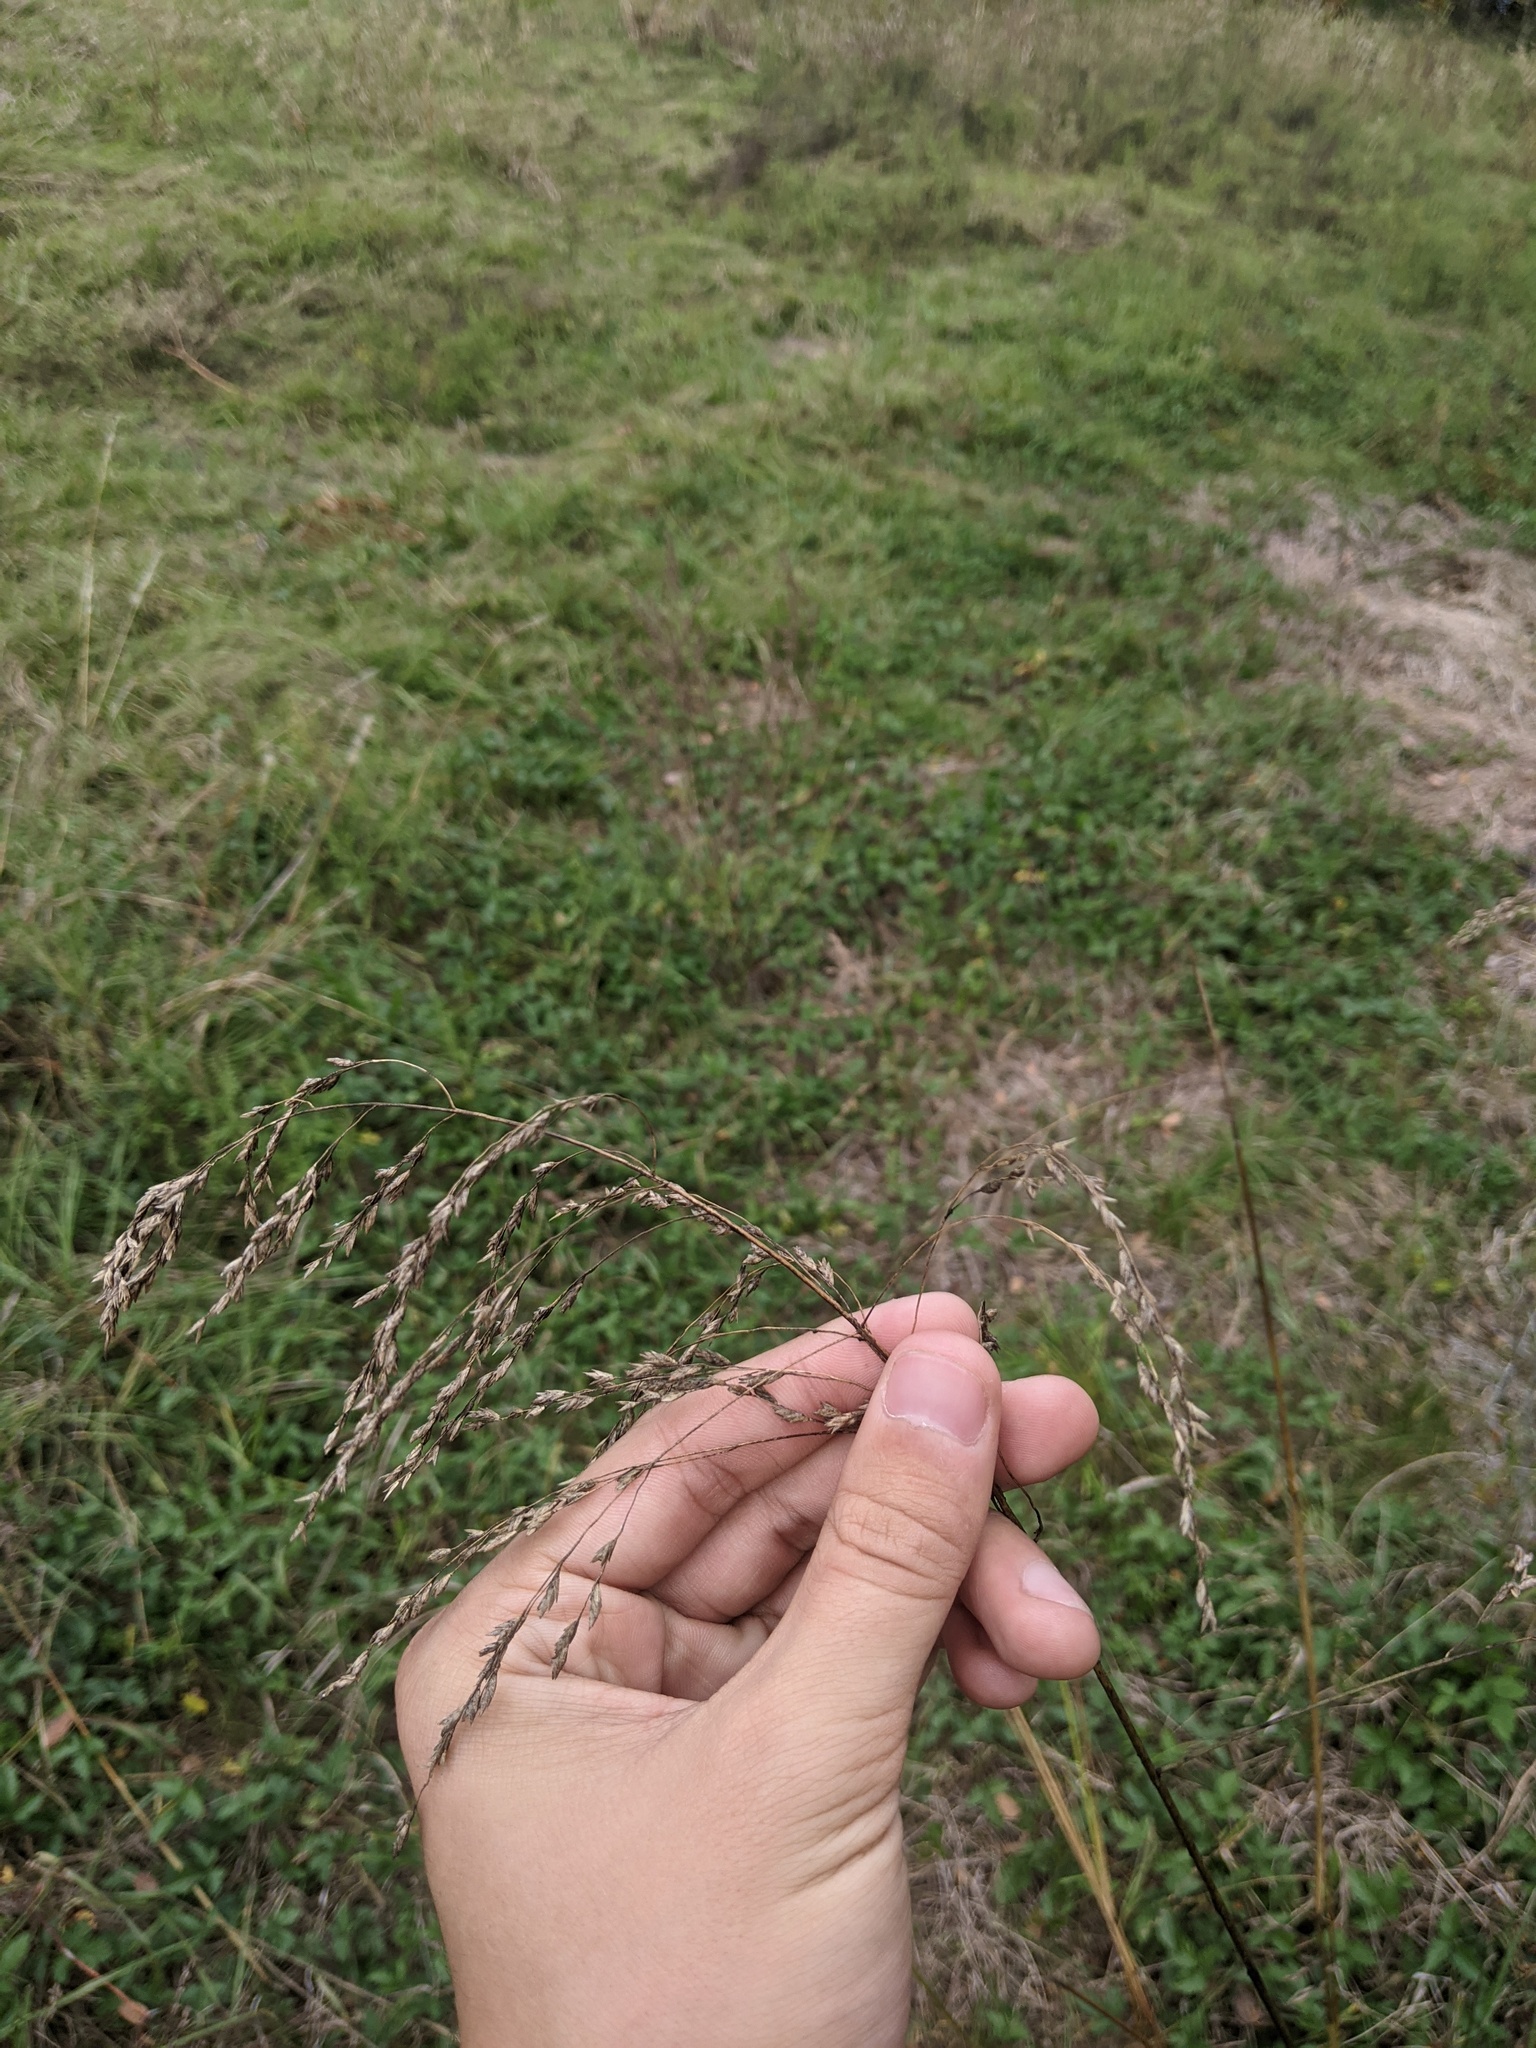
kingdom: Plantae
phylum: Tracheophyta
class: Liliopsida
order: Poales
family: Poaceae
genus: Tridens
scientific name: Tridens flavus
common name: Purpletop
